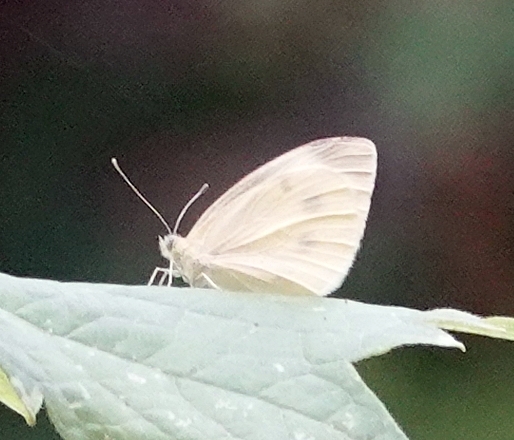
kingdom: Animalia
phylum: Arthropoda
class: Insecta
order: Lepidoptera
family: Pieridae
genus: Pieris
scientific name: Pieris rapae
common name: Small white
